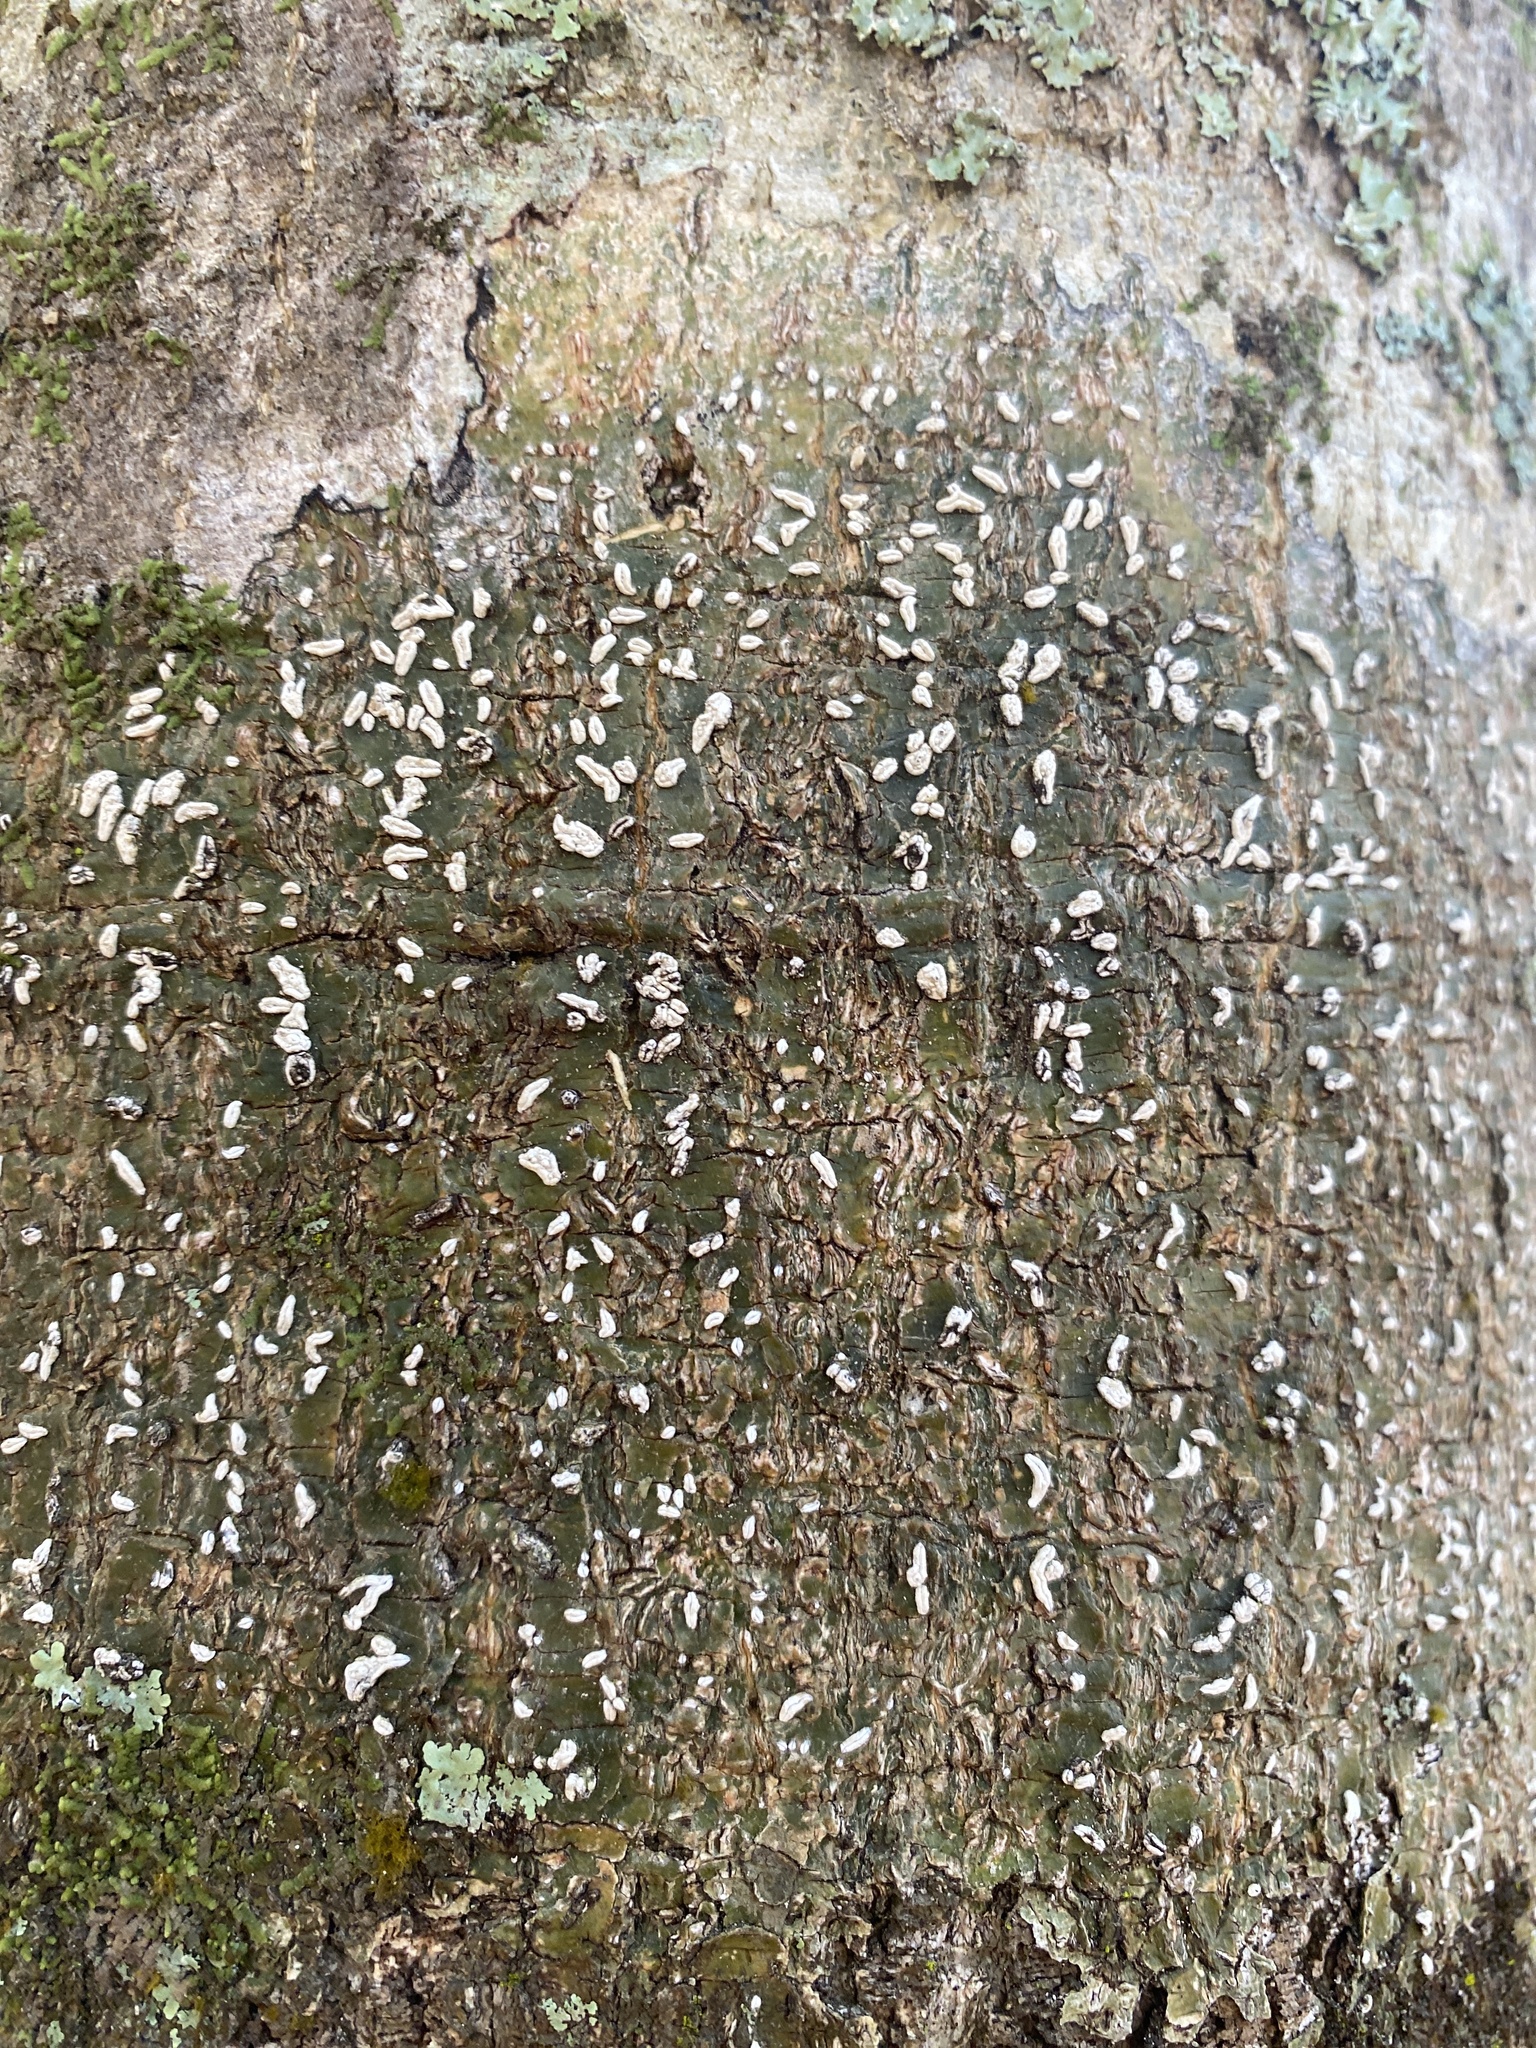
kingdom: Fungi
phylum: Ascomycota
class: Lecanoromycetes
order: Ostropales
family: Graphidaceae
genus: Dyplolabia
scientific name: Dyplolabia afzelii
